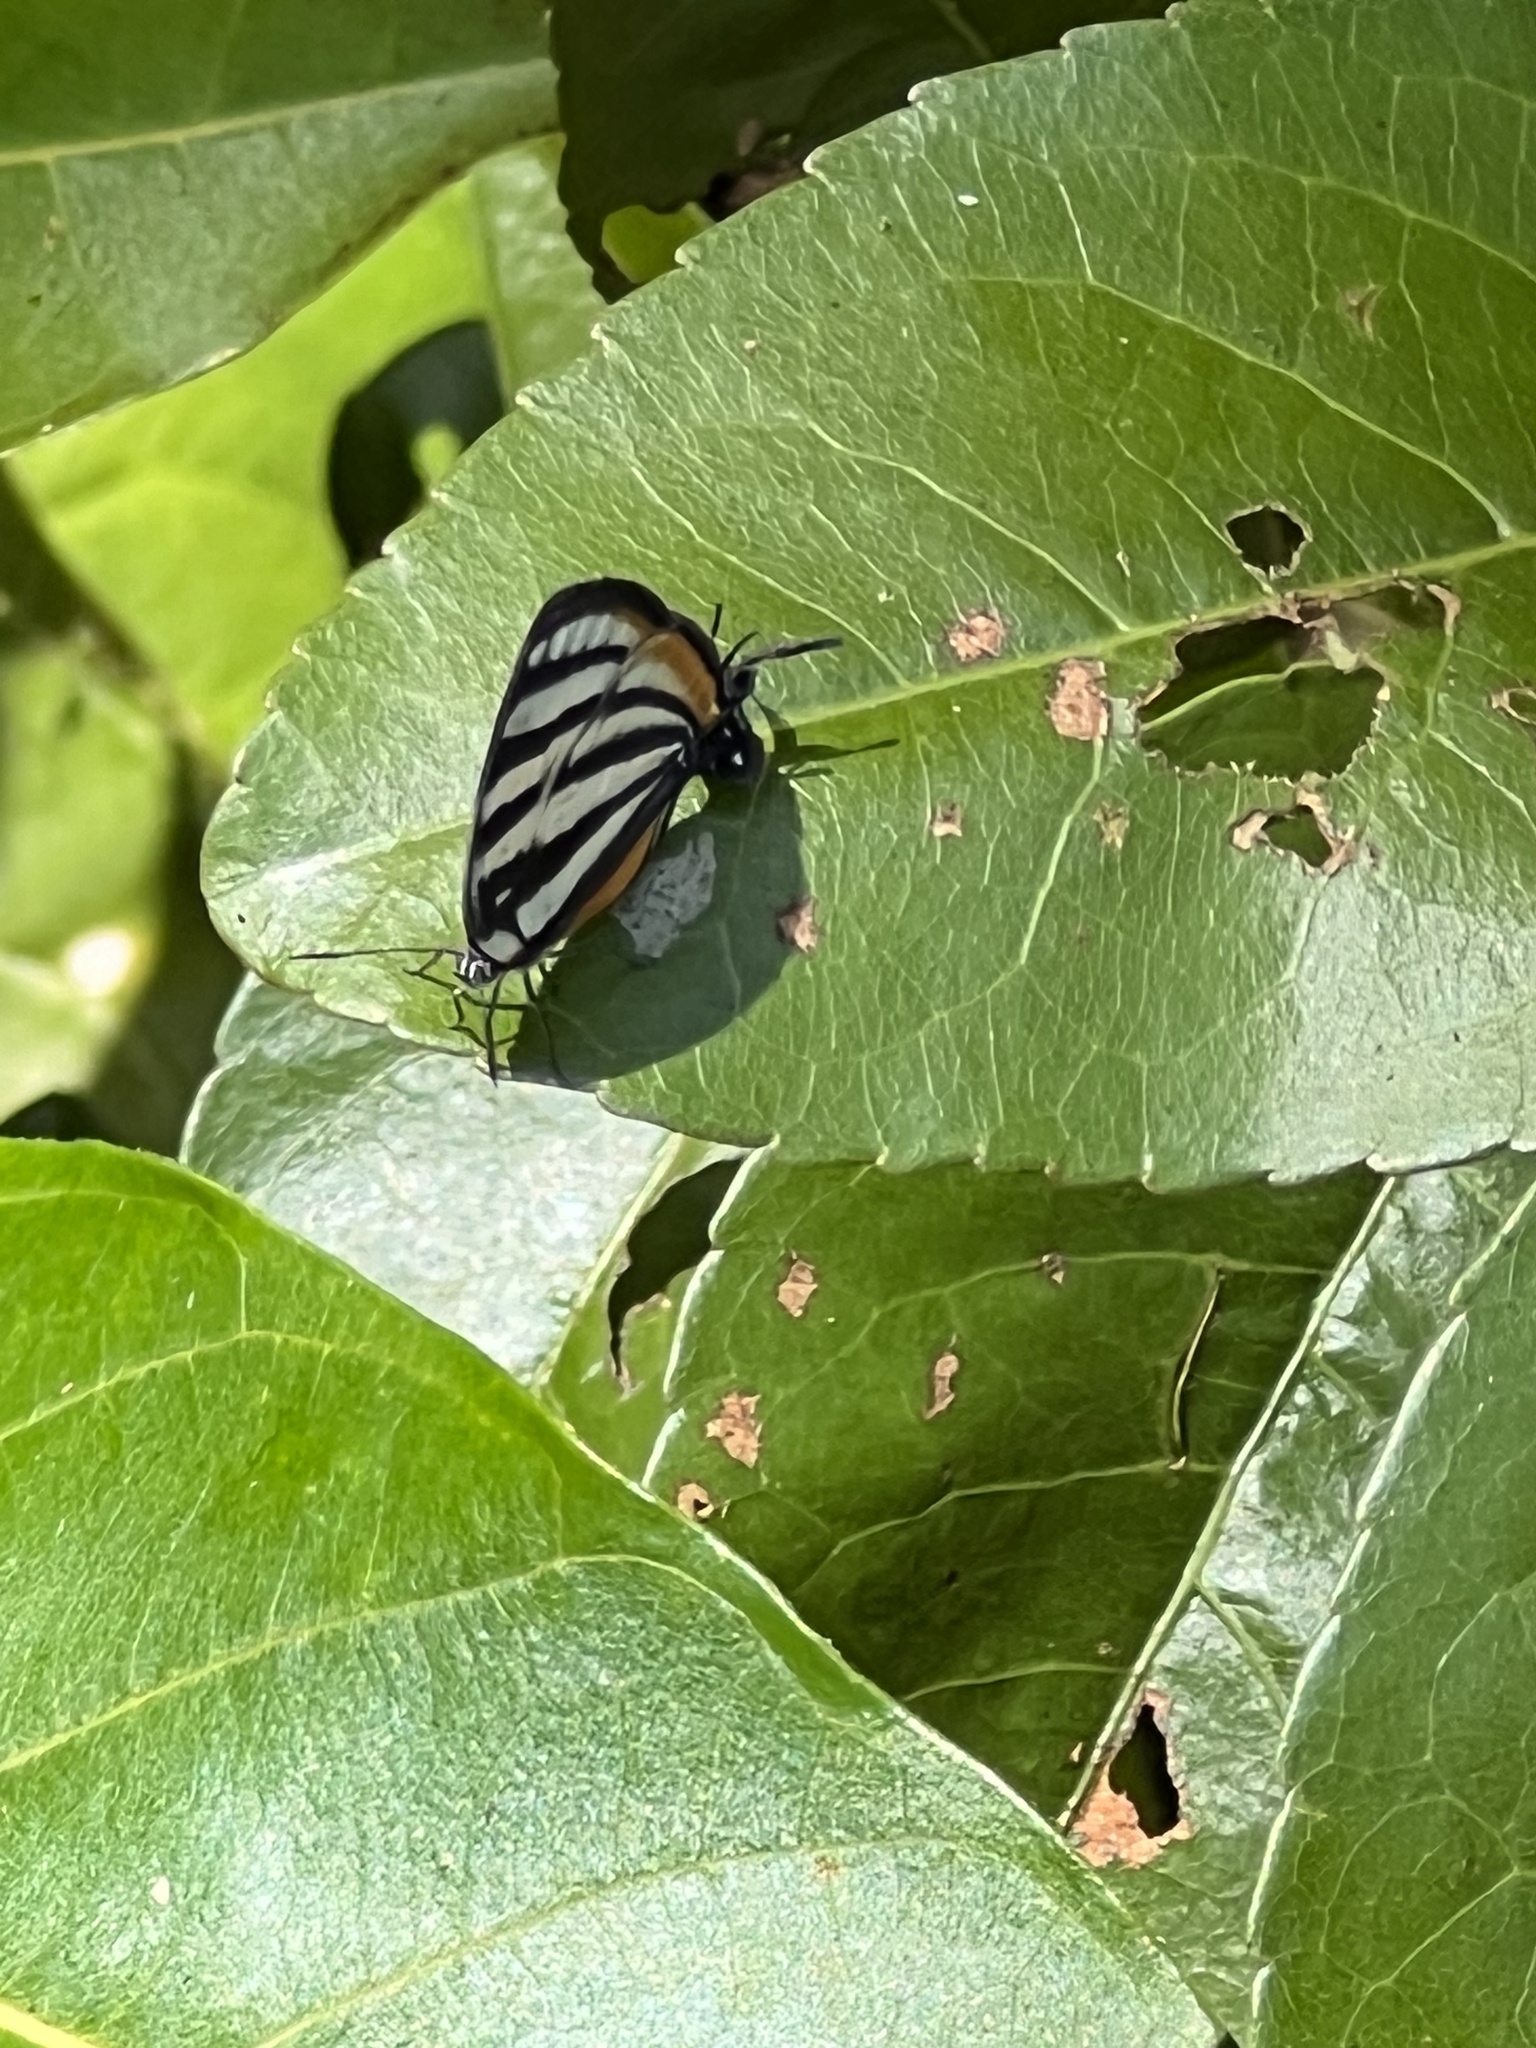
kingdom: Animalia
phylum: Arthropoda
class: Insecta
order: Lepidoptera
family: Lycaenidae
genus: Arawacus
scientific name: Arawacus lincoides
